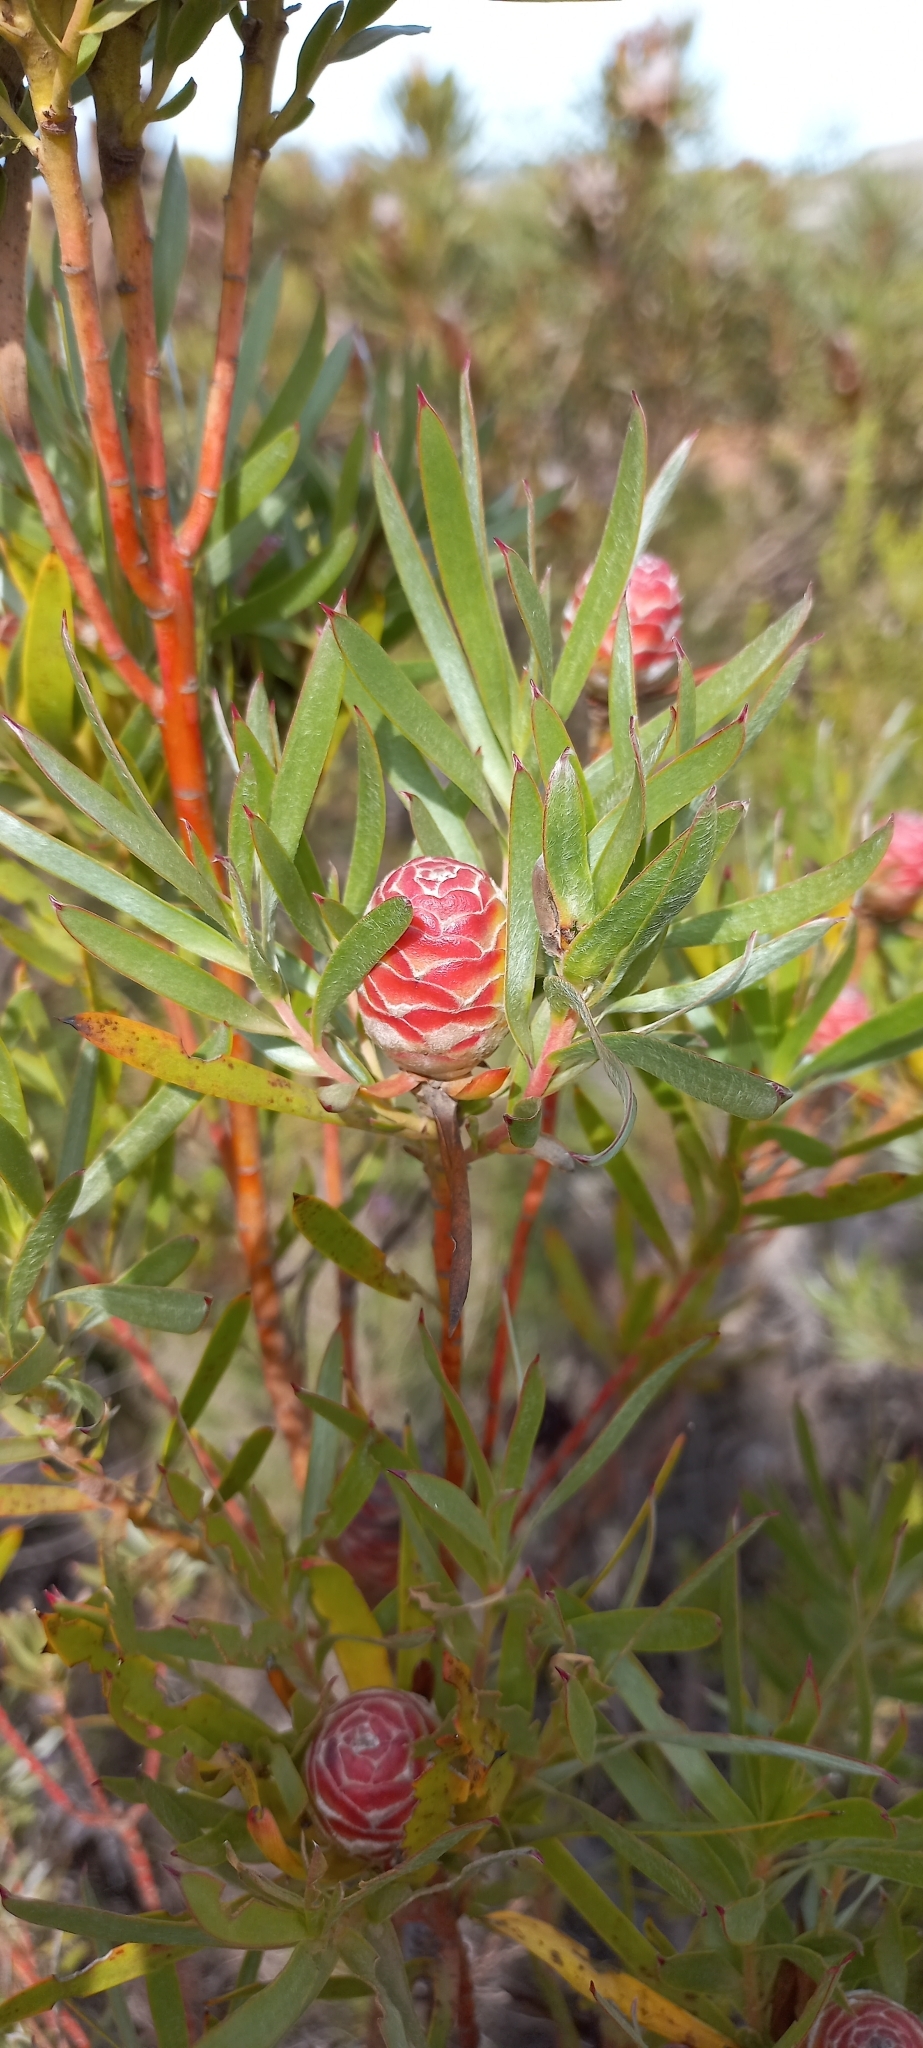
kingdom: Plantae
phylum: Tracheophyta
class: Magnoliopsida
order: Proteales
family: Proteaceae
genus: Leucadendron
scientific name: Leucadendron xanthoconus
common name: Sickle-leaf conebush
